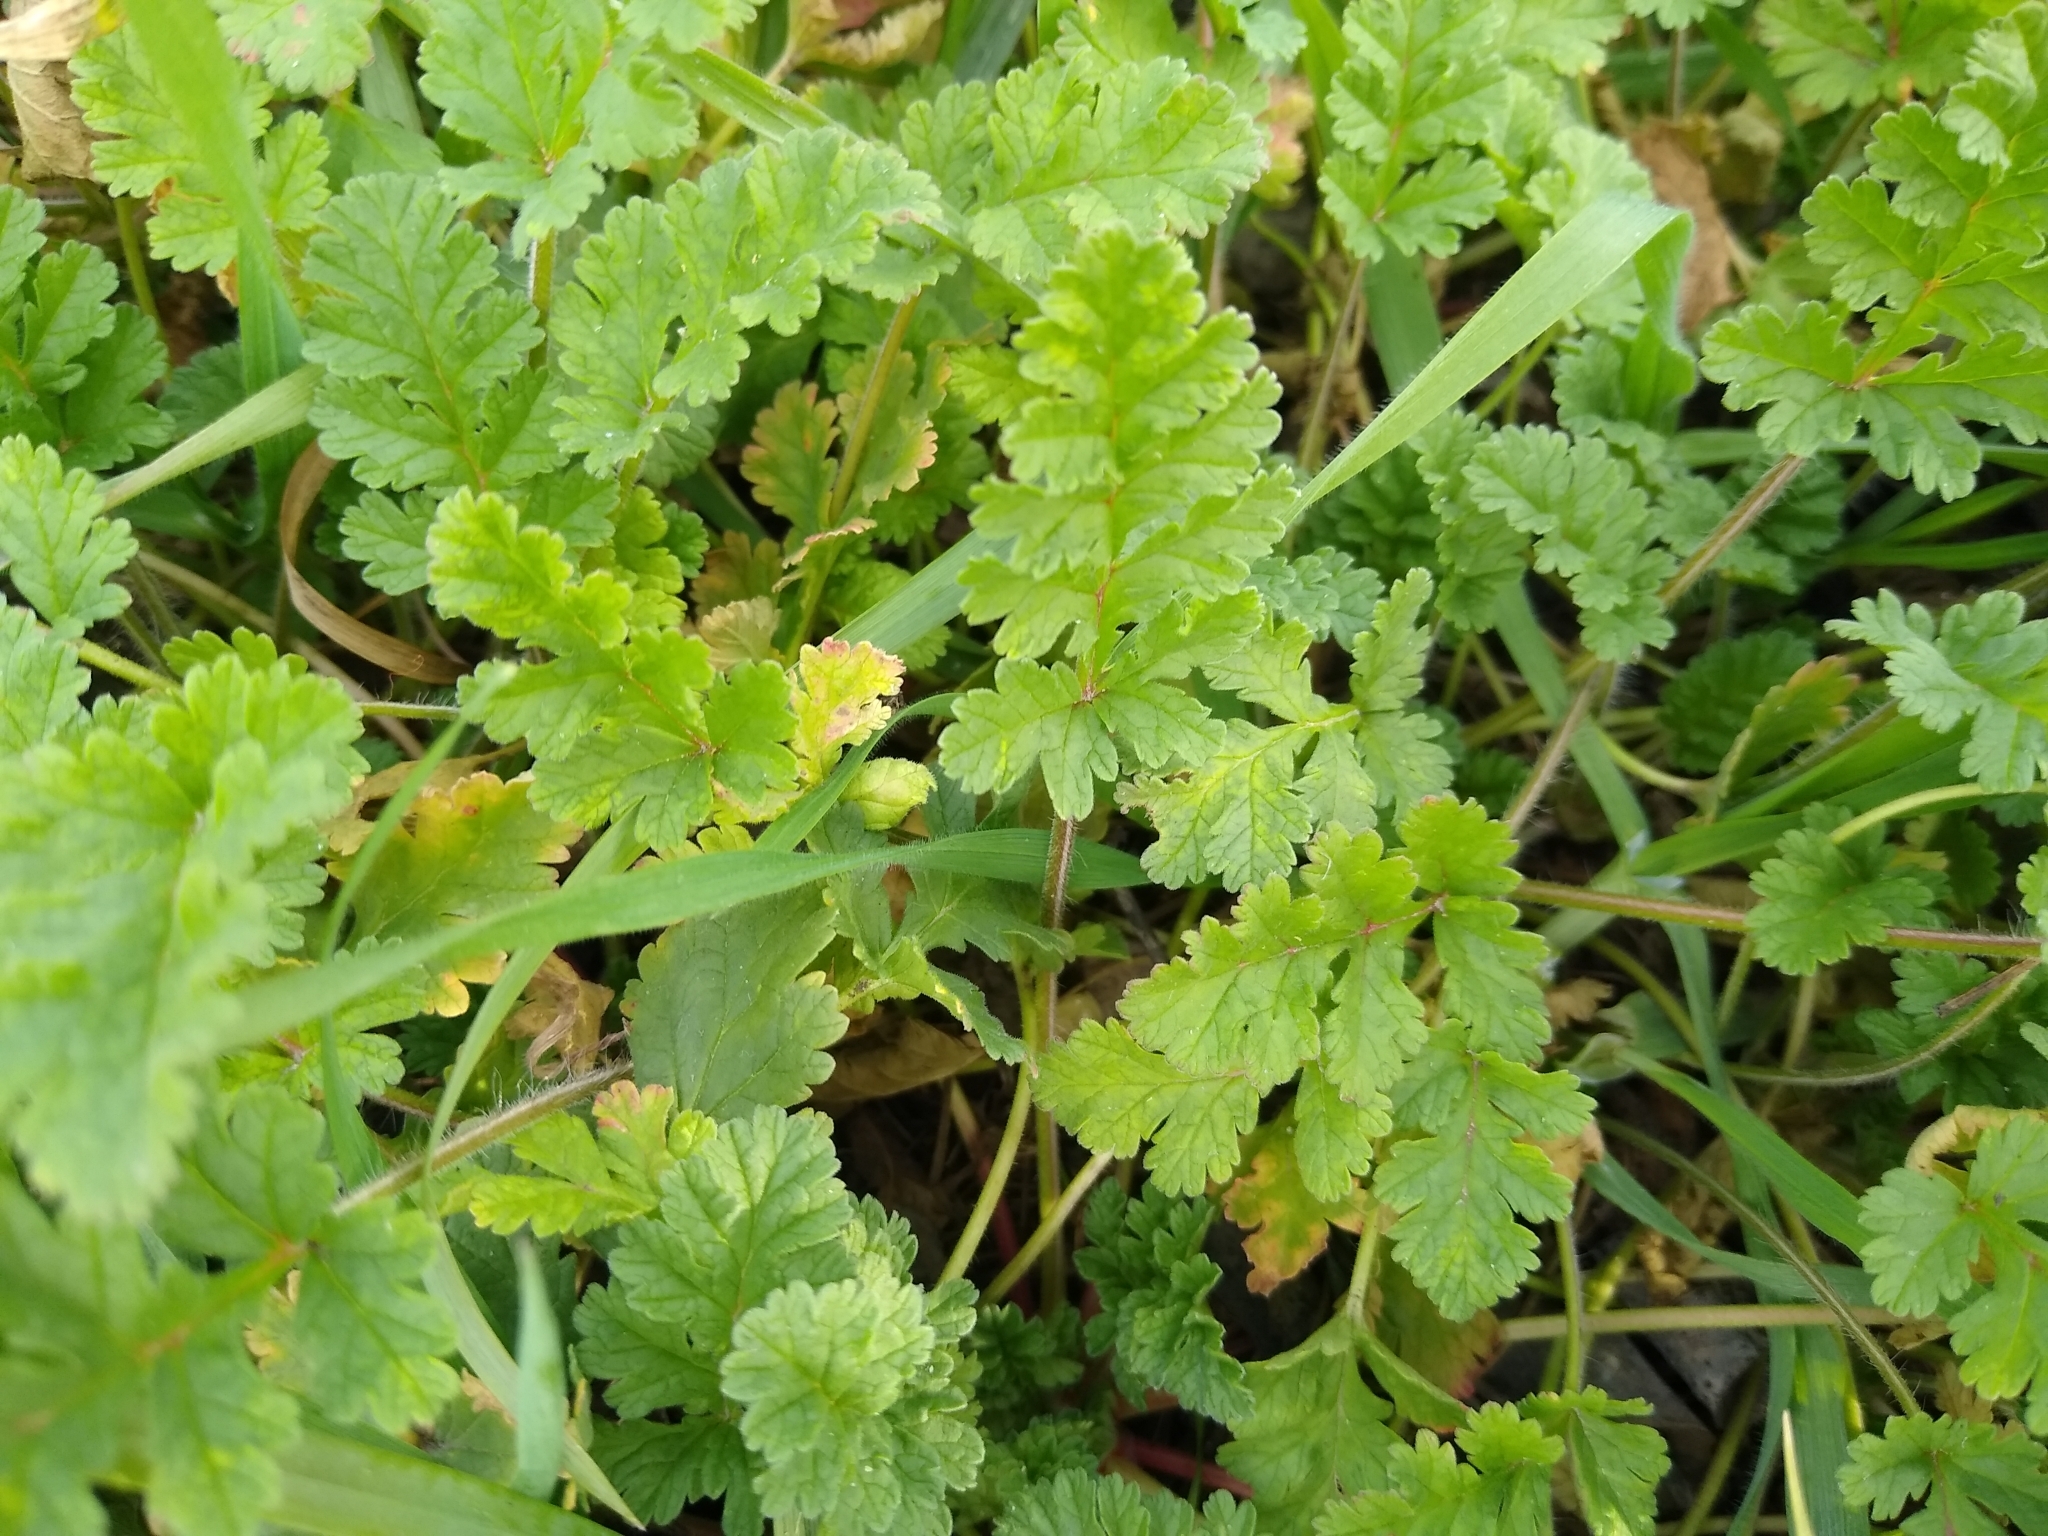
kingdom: Plantae
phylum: Tracheophyta
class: Magnoliopsida
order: Geraniales
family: Geraniaceae
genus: Erodium
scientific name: Erodium ciconium
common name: Common stork's bill
